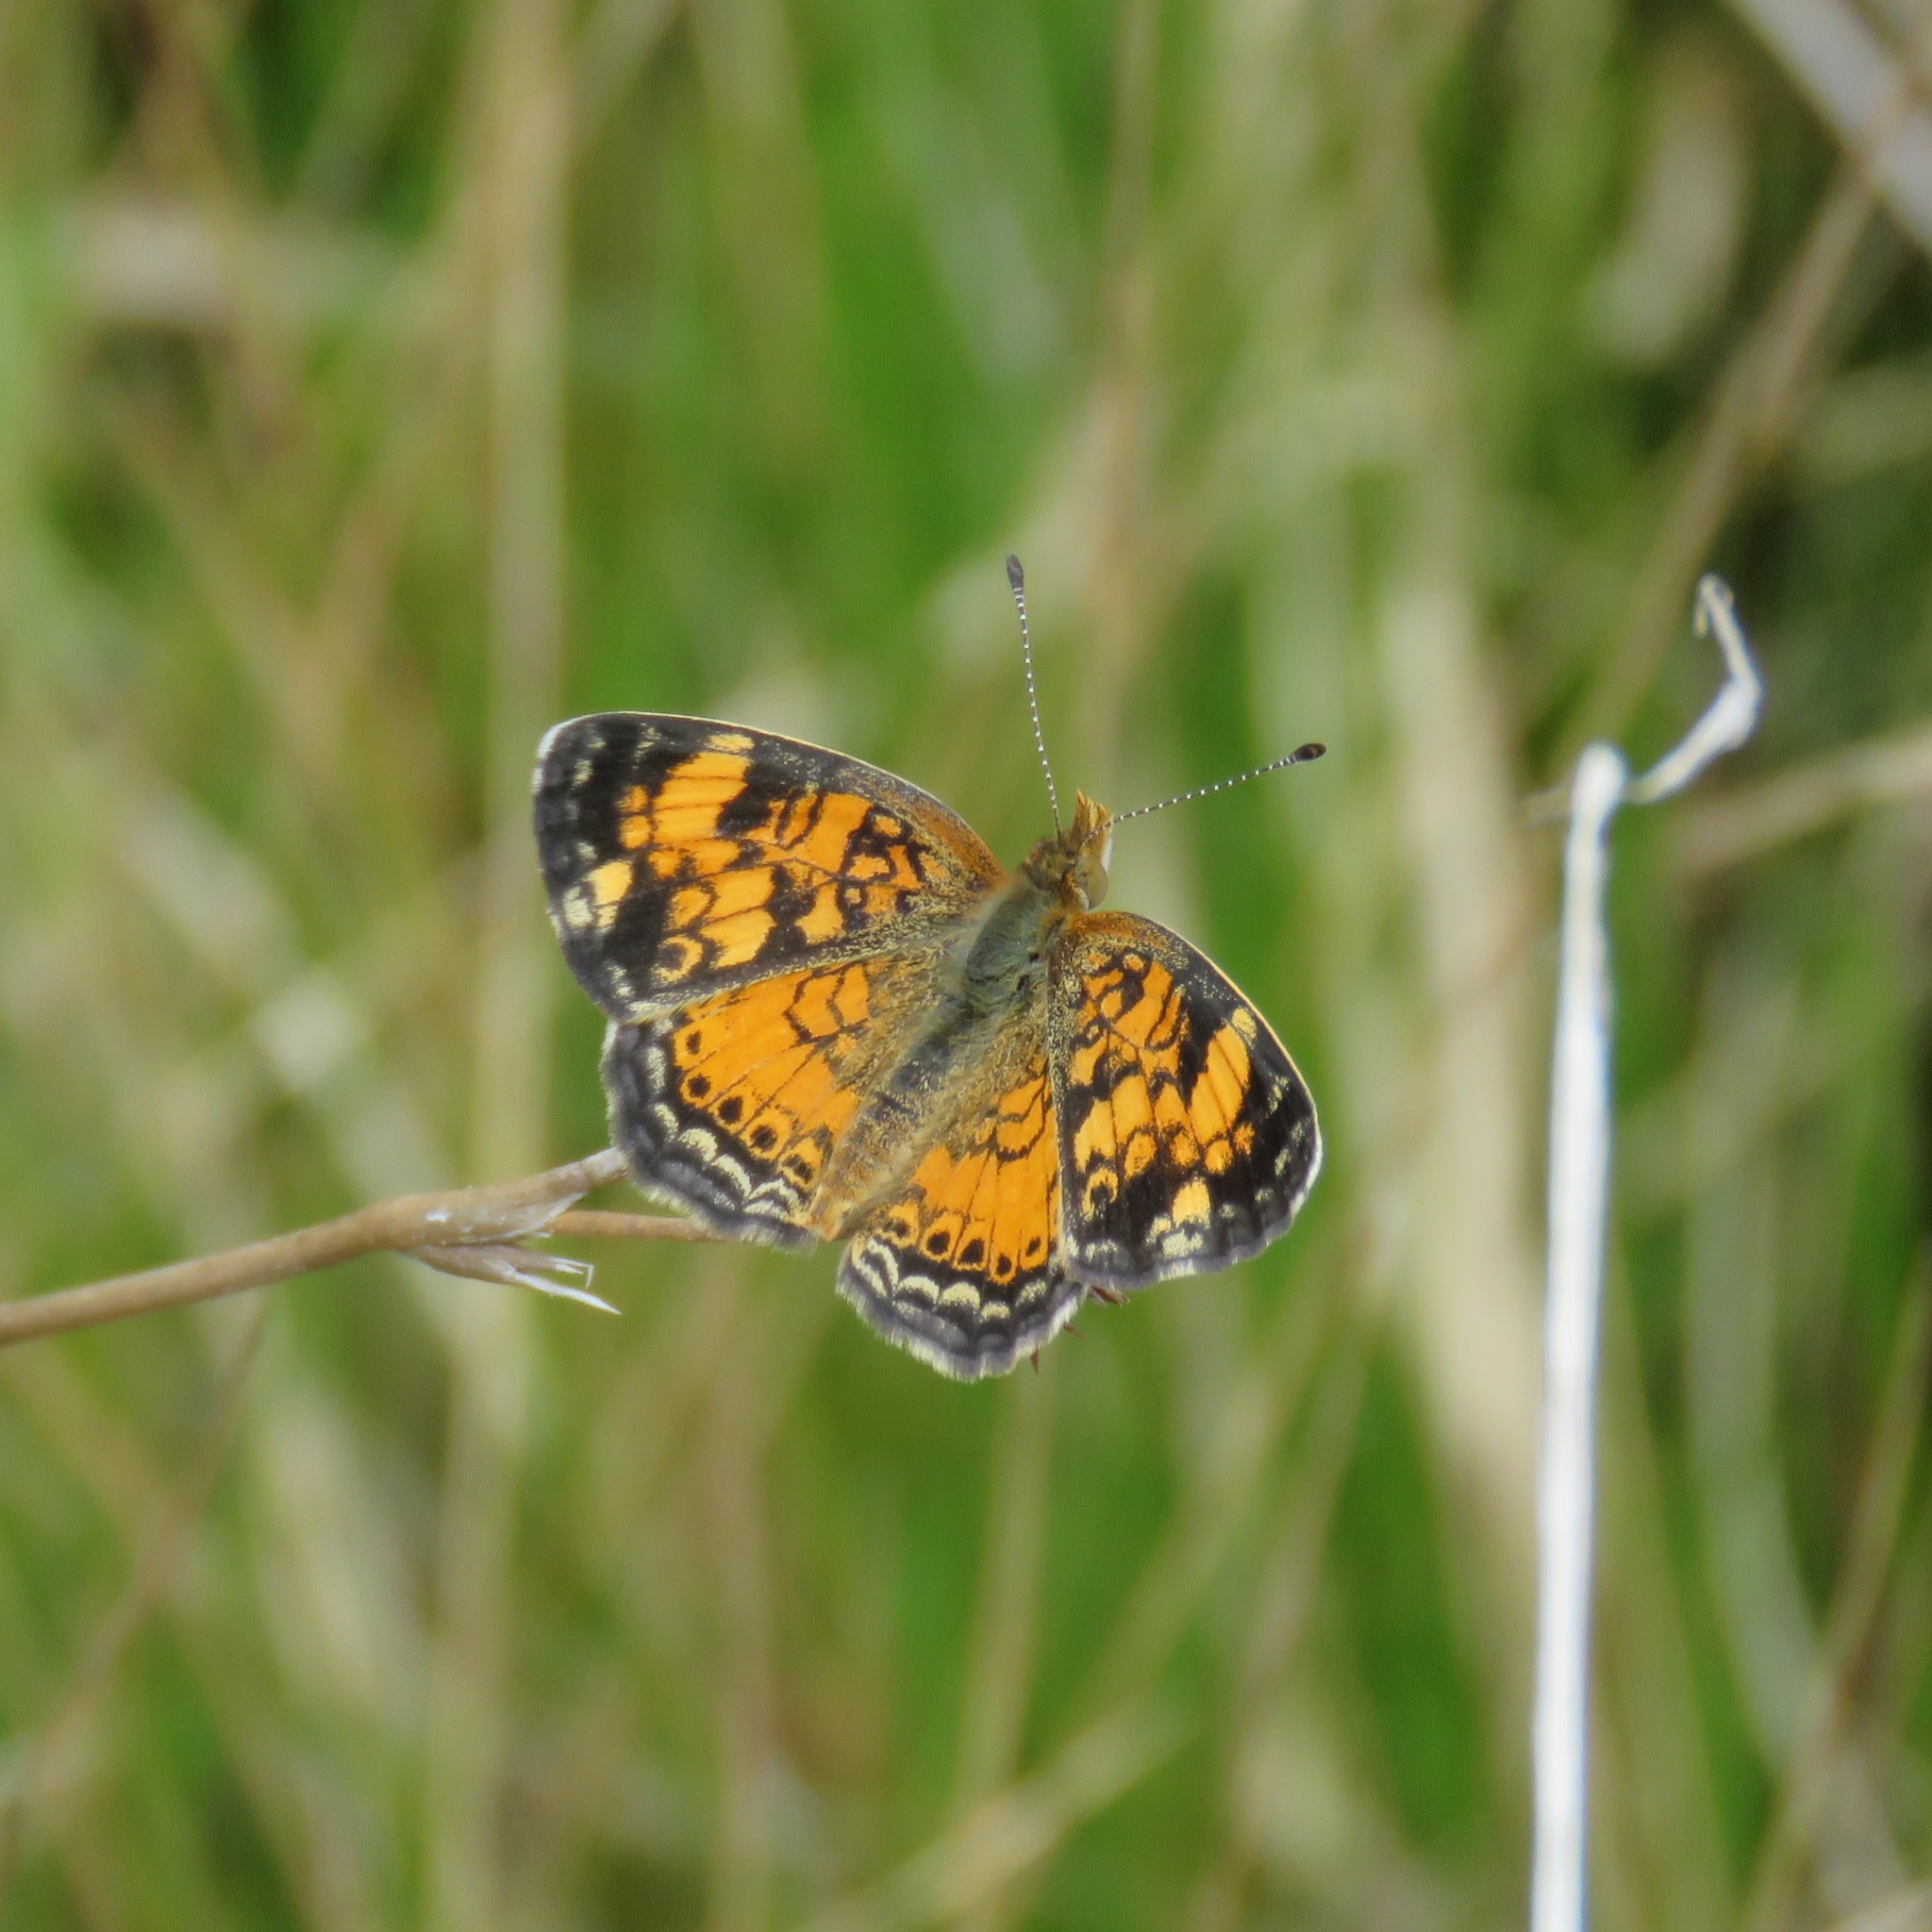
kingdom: Animalia
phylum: Arthropoda
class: Insecta
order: Lepidoptera
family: Nymphalidae
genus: Phyciodes
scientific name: Phyciodes tharos
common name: Pearl crescent
